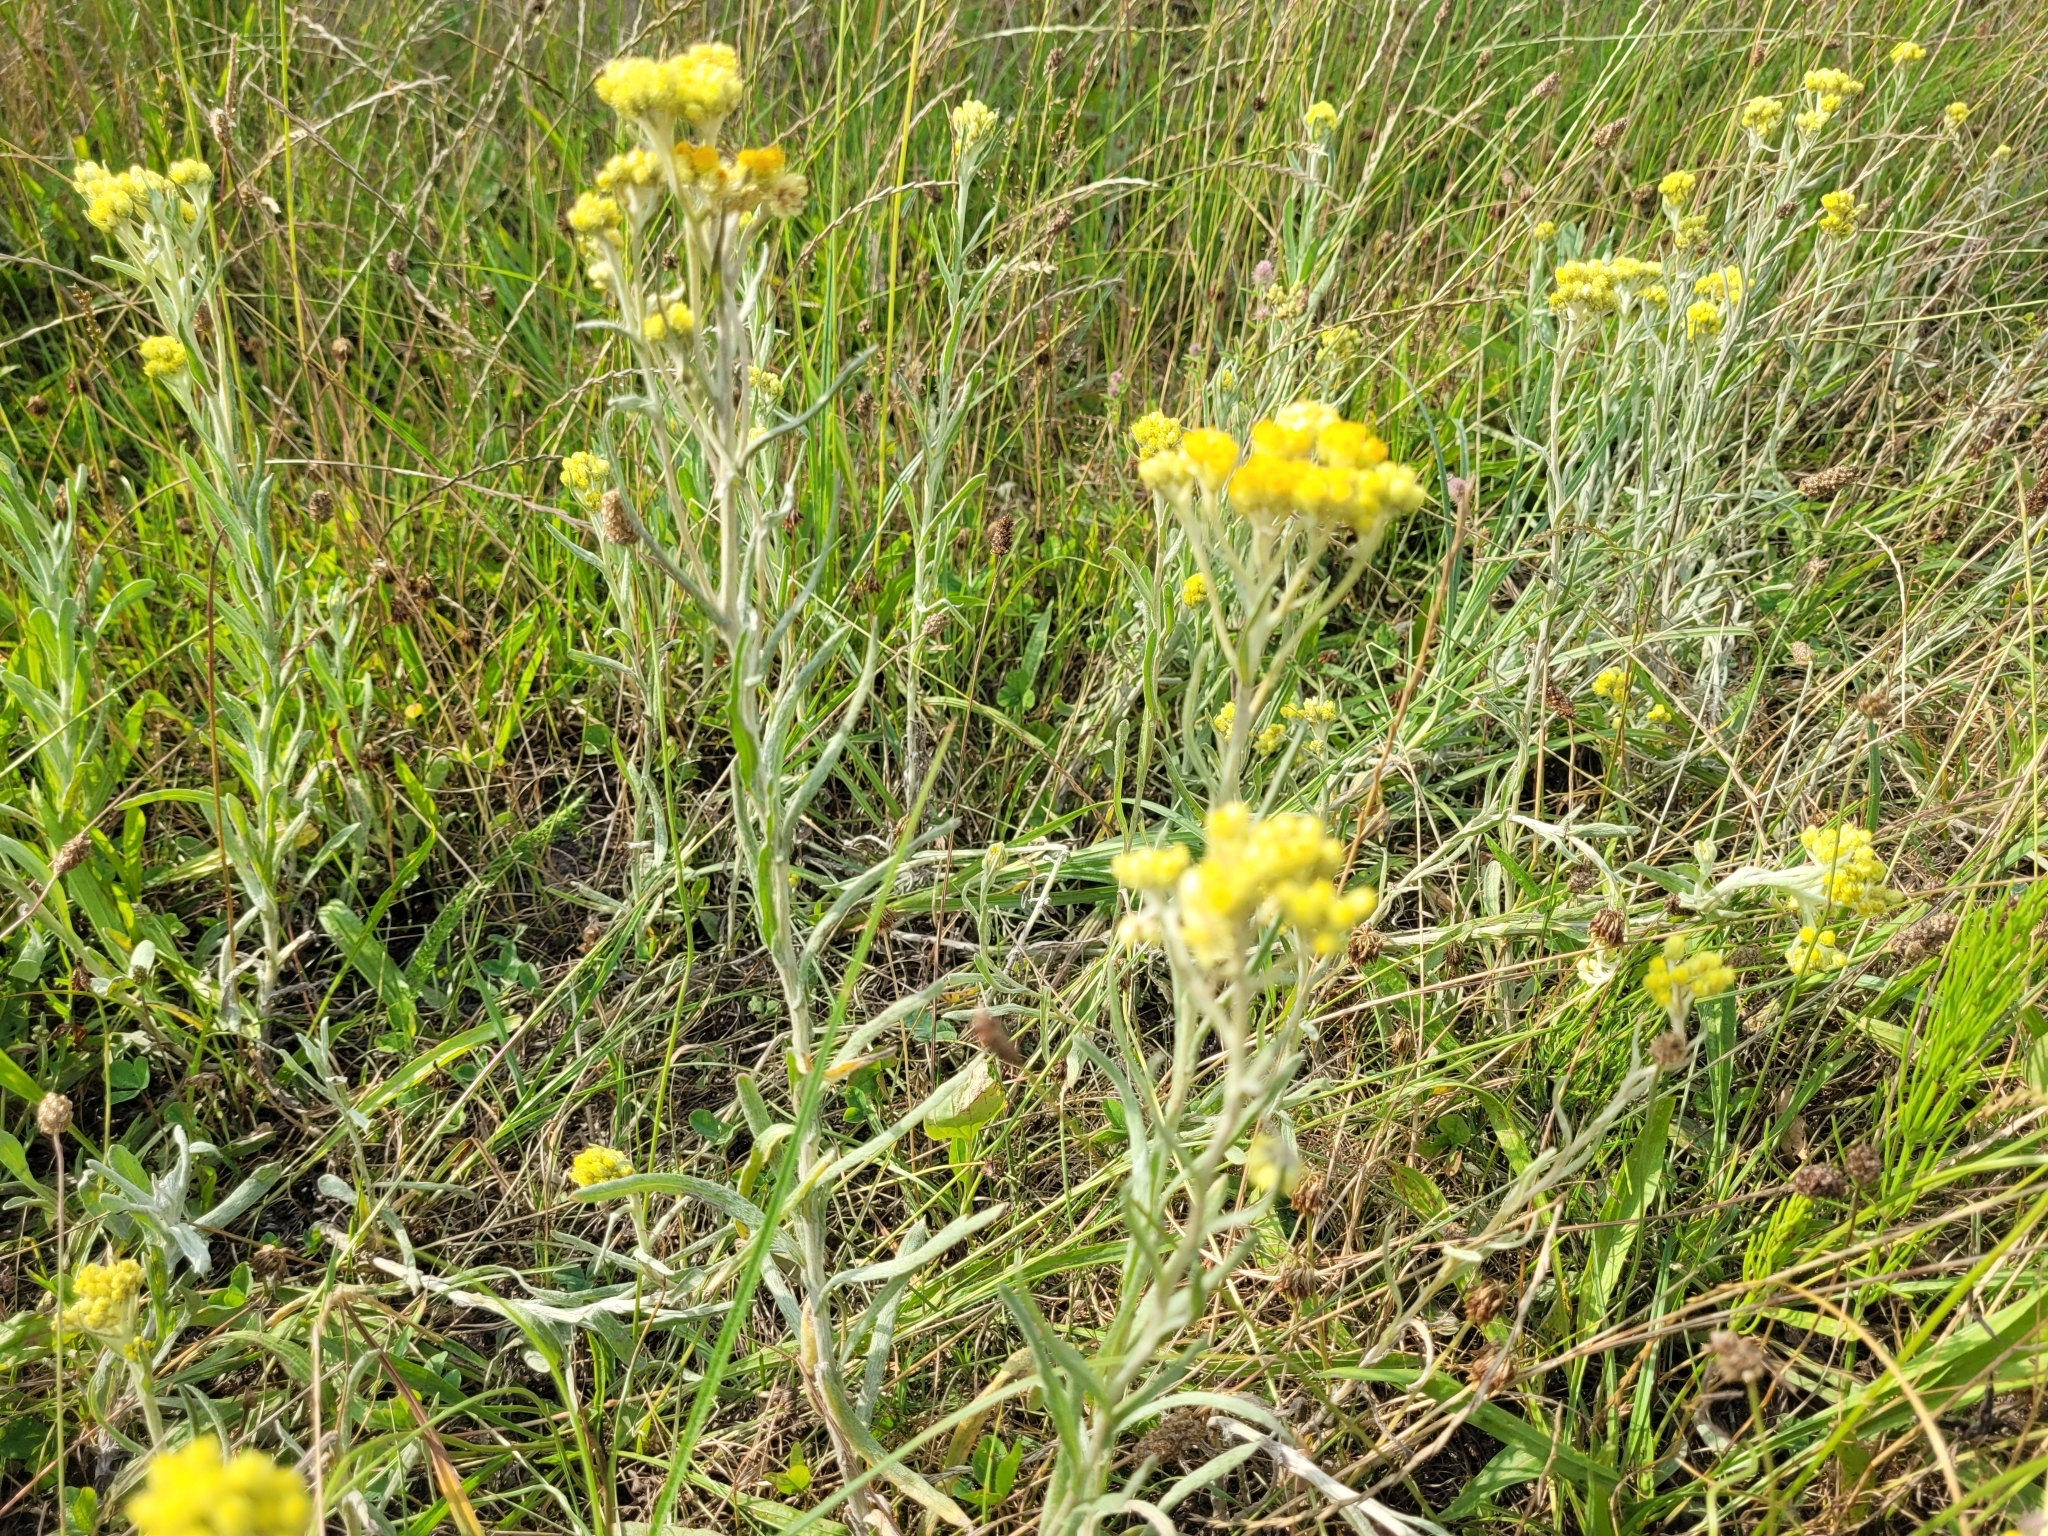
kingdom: Plantae
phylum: Tracheophyta
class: Magnoliopsida
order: Asterales
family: Asteraceae
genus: Helichrysum
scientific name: Helichrysum arenarium
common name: Strawflower
